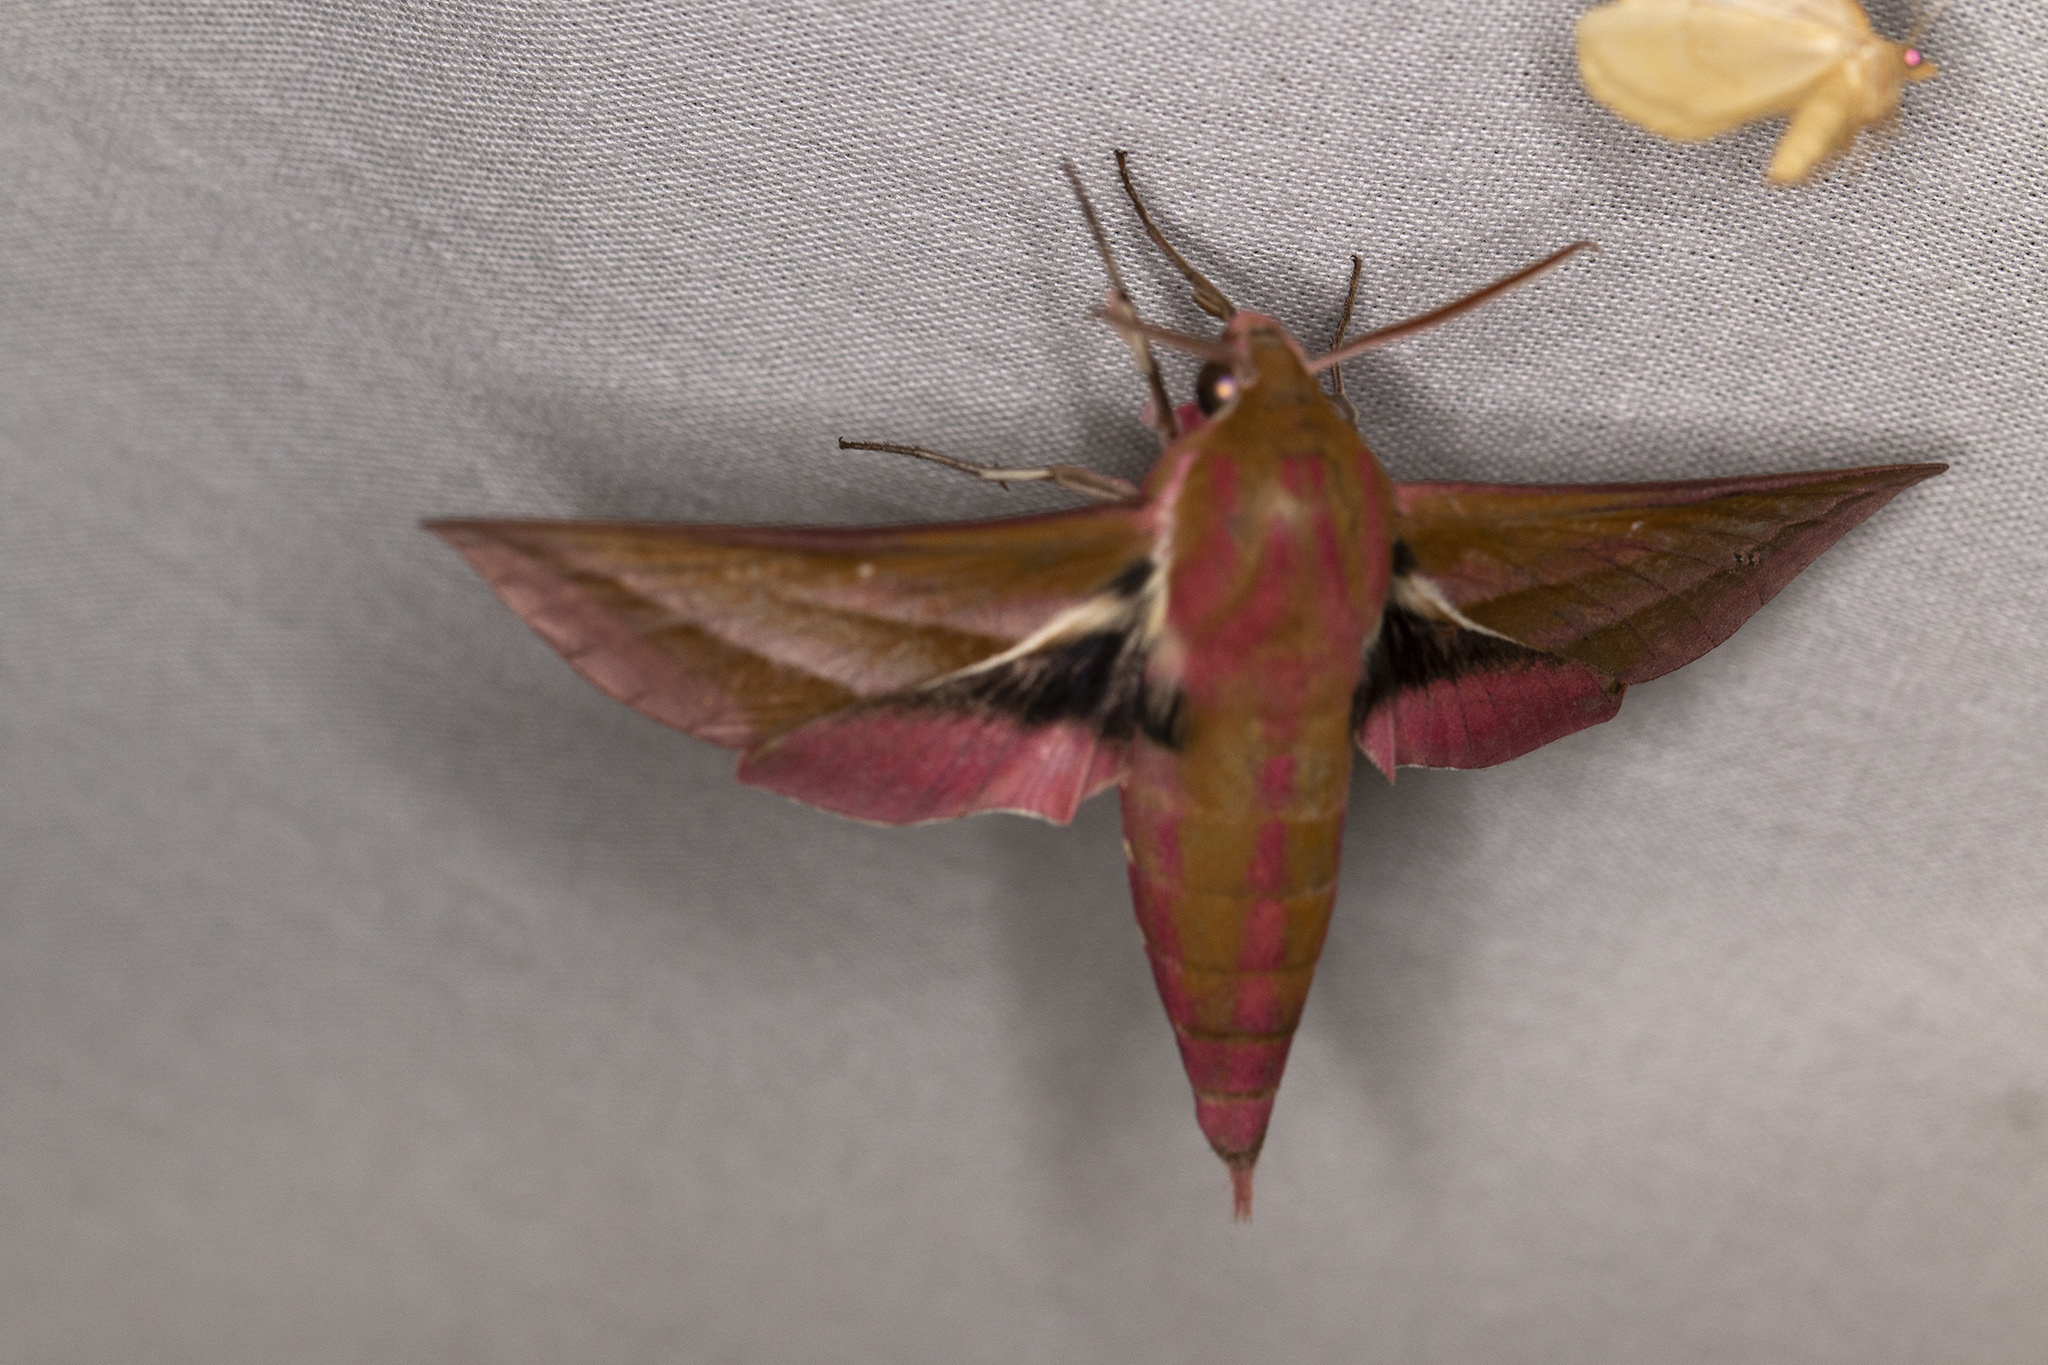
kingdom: Animalia
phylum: Arthropoda
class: Insecta
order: Lepidoptera
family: Sphingidae
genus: Deilephila
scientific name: Deilephila elpenor
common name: Elephant hawk-moth
